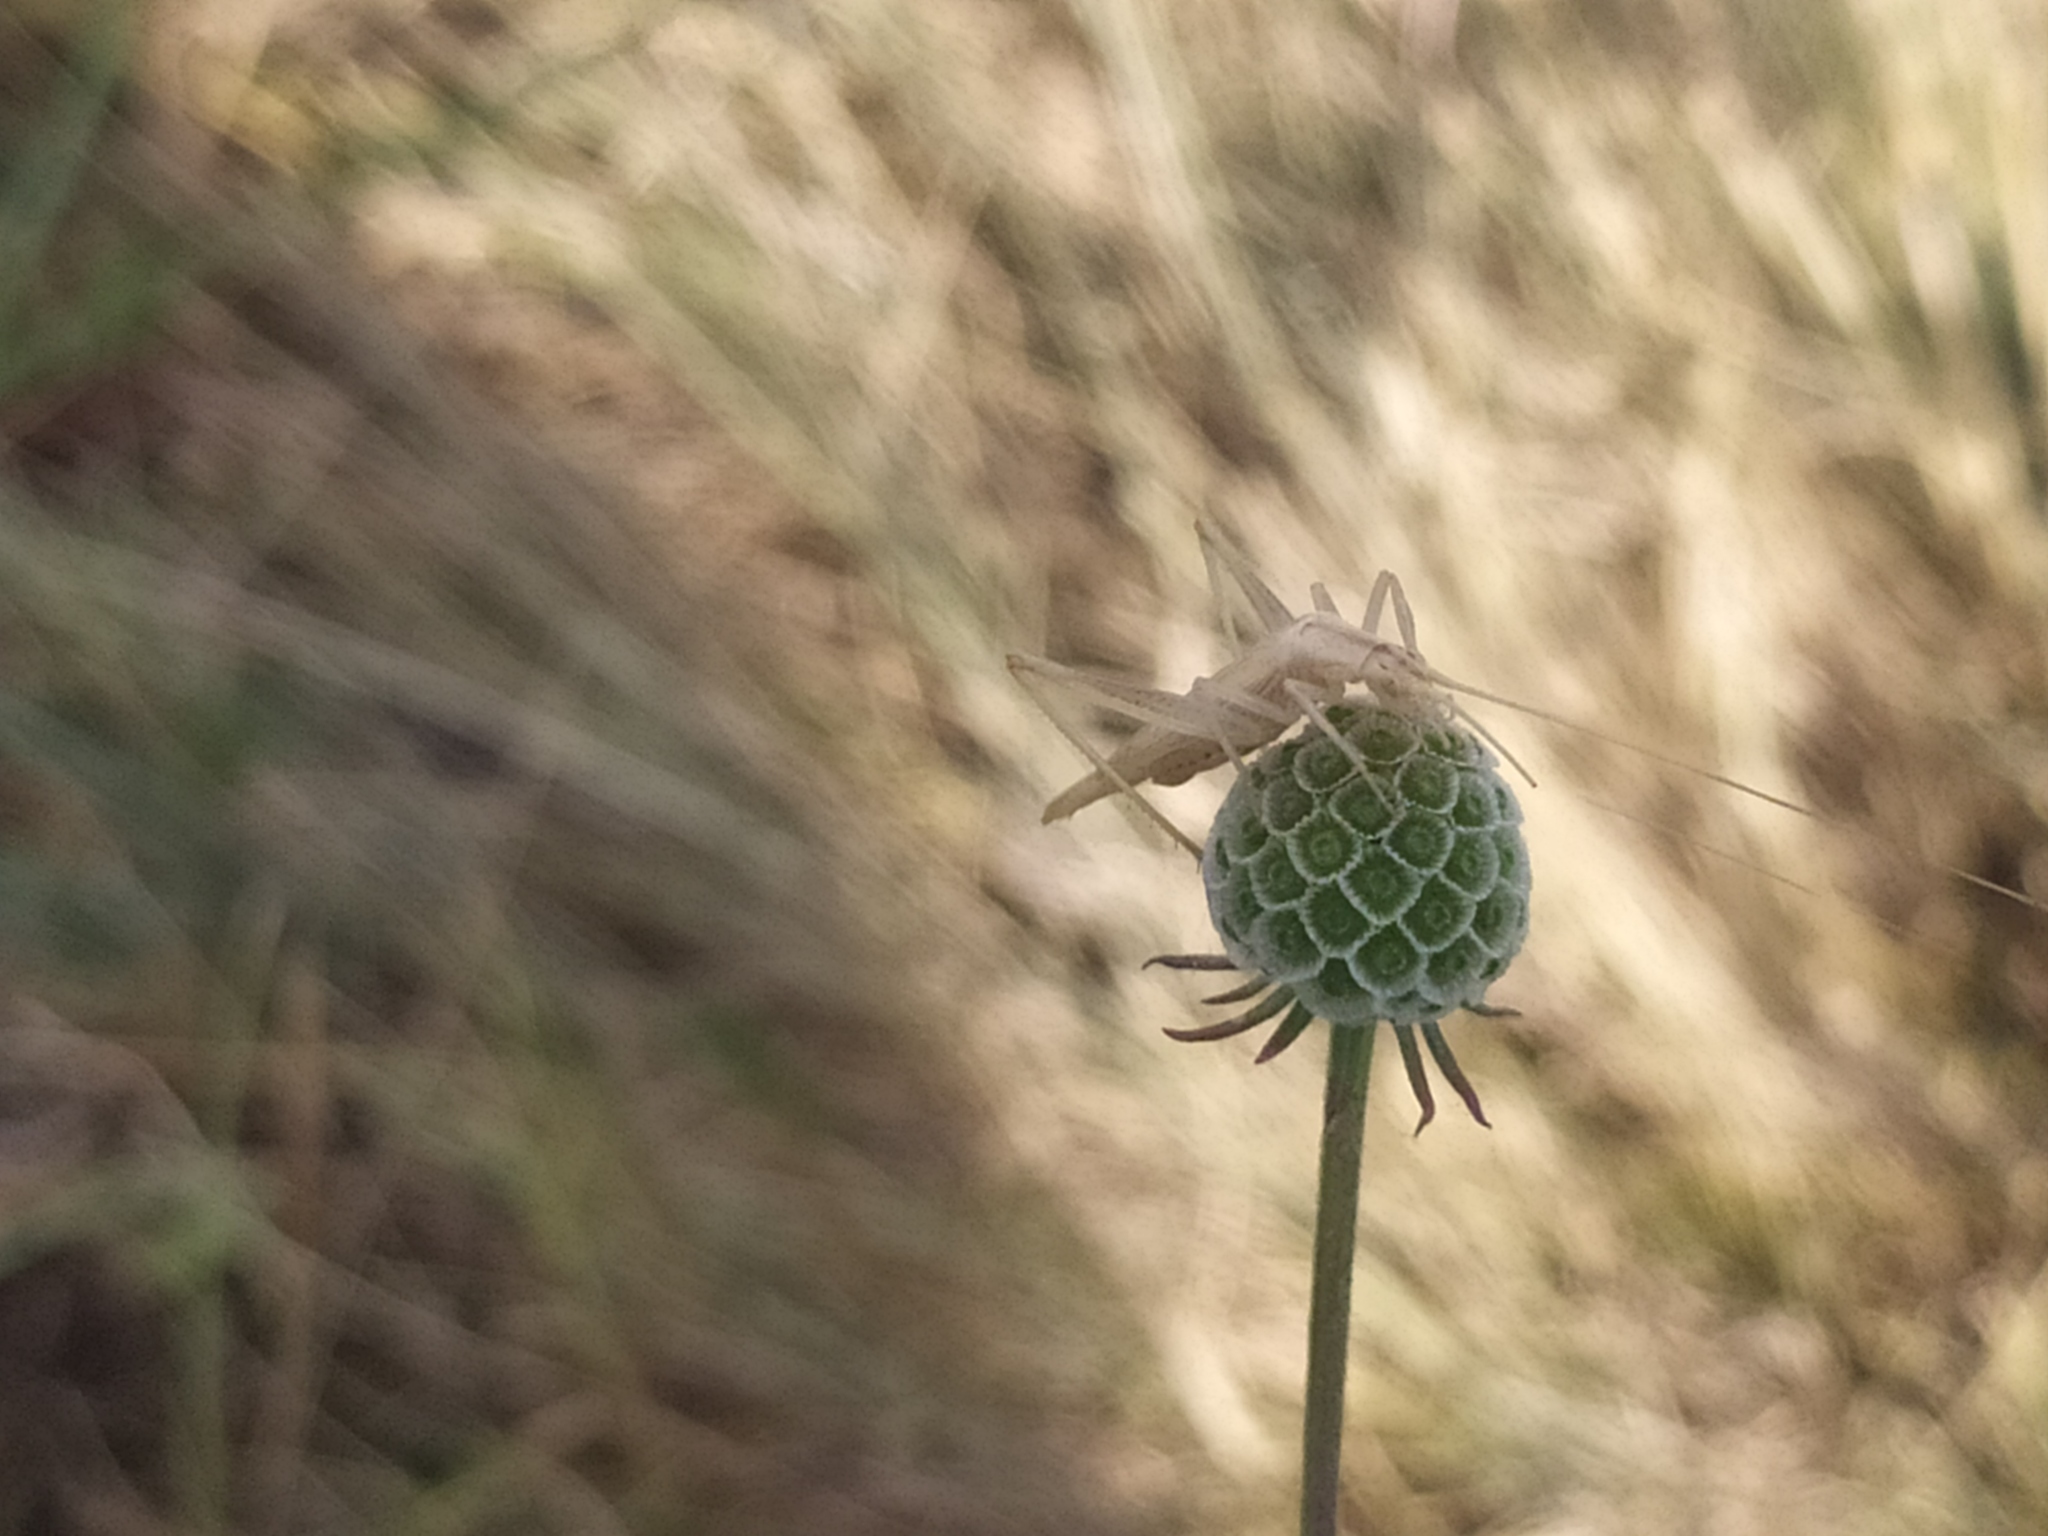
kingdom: Animalia
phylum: Arthropoda
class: Insecta
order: Orthoptera
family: Gryllidae
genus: Oecanthus
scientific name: Oecanthus pellucens
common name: Tree-cricket
